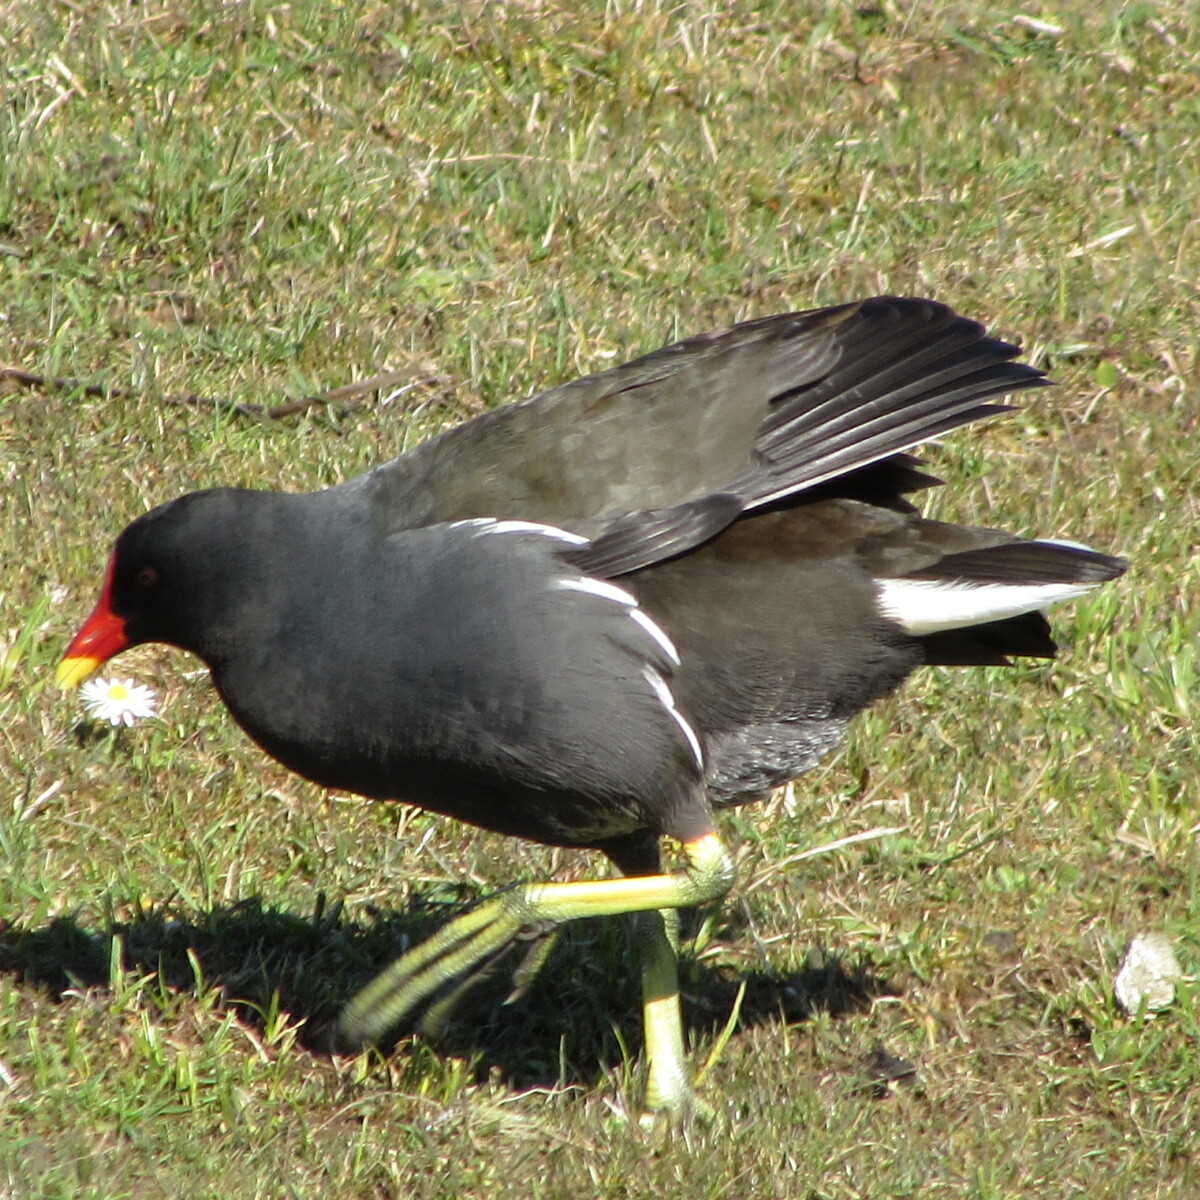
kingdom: Animalia
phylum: Chordata
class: Aves
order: Gruiformes
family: Rallidae
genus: Gallinula
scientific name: Gallinula chloropus
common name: Common moorhen
